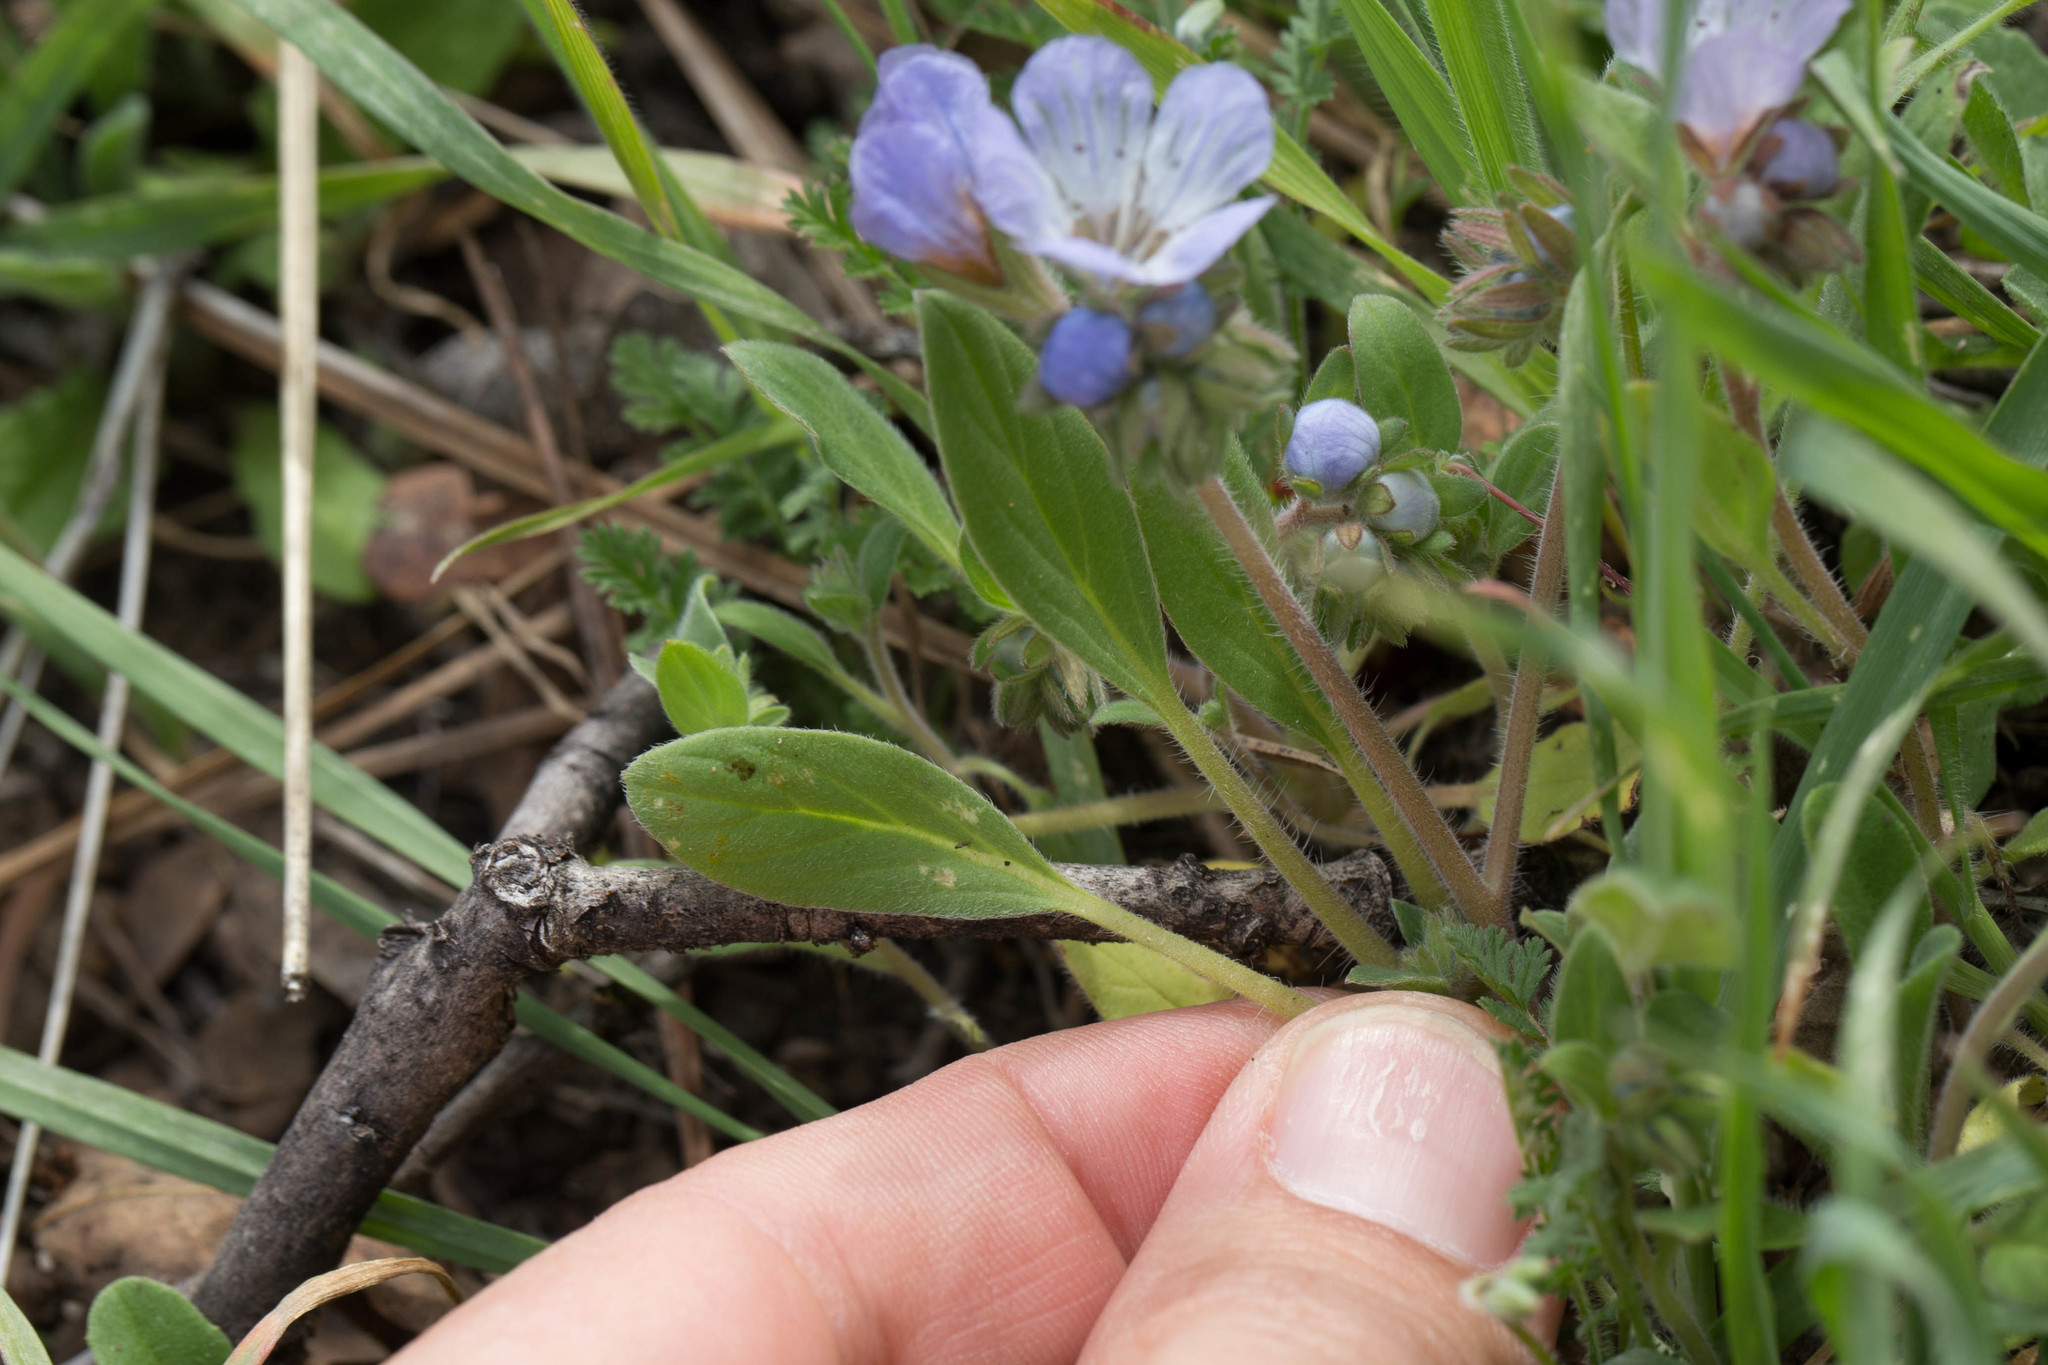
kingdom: Plantae
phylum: Tracheophyta
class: Magnoliopsida
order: Boraginales
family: Hydrophyllaceae
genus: Phacelia
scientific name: Phacelia divaricata
